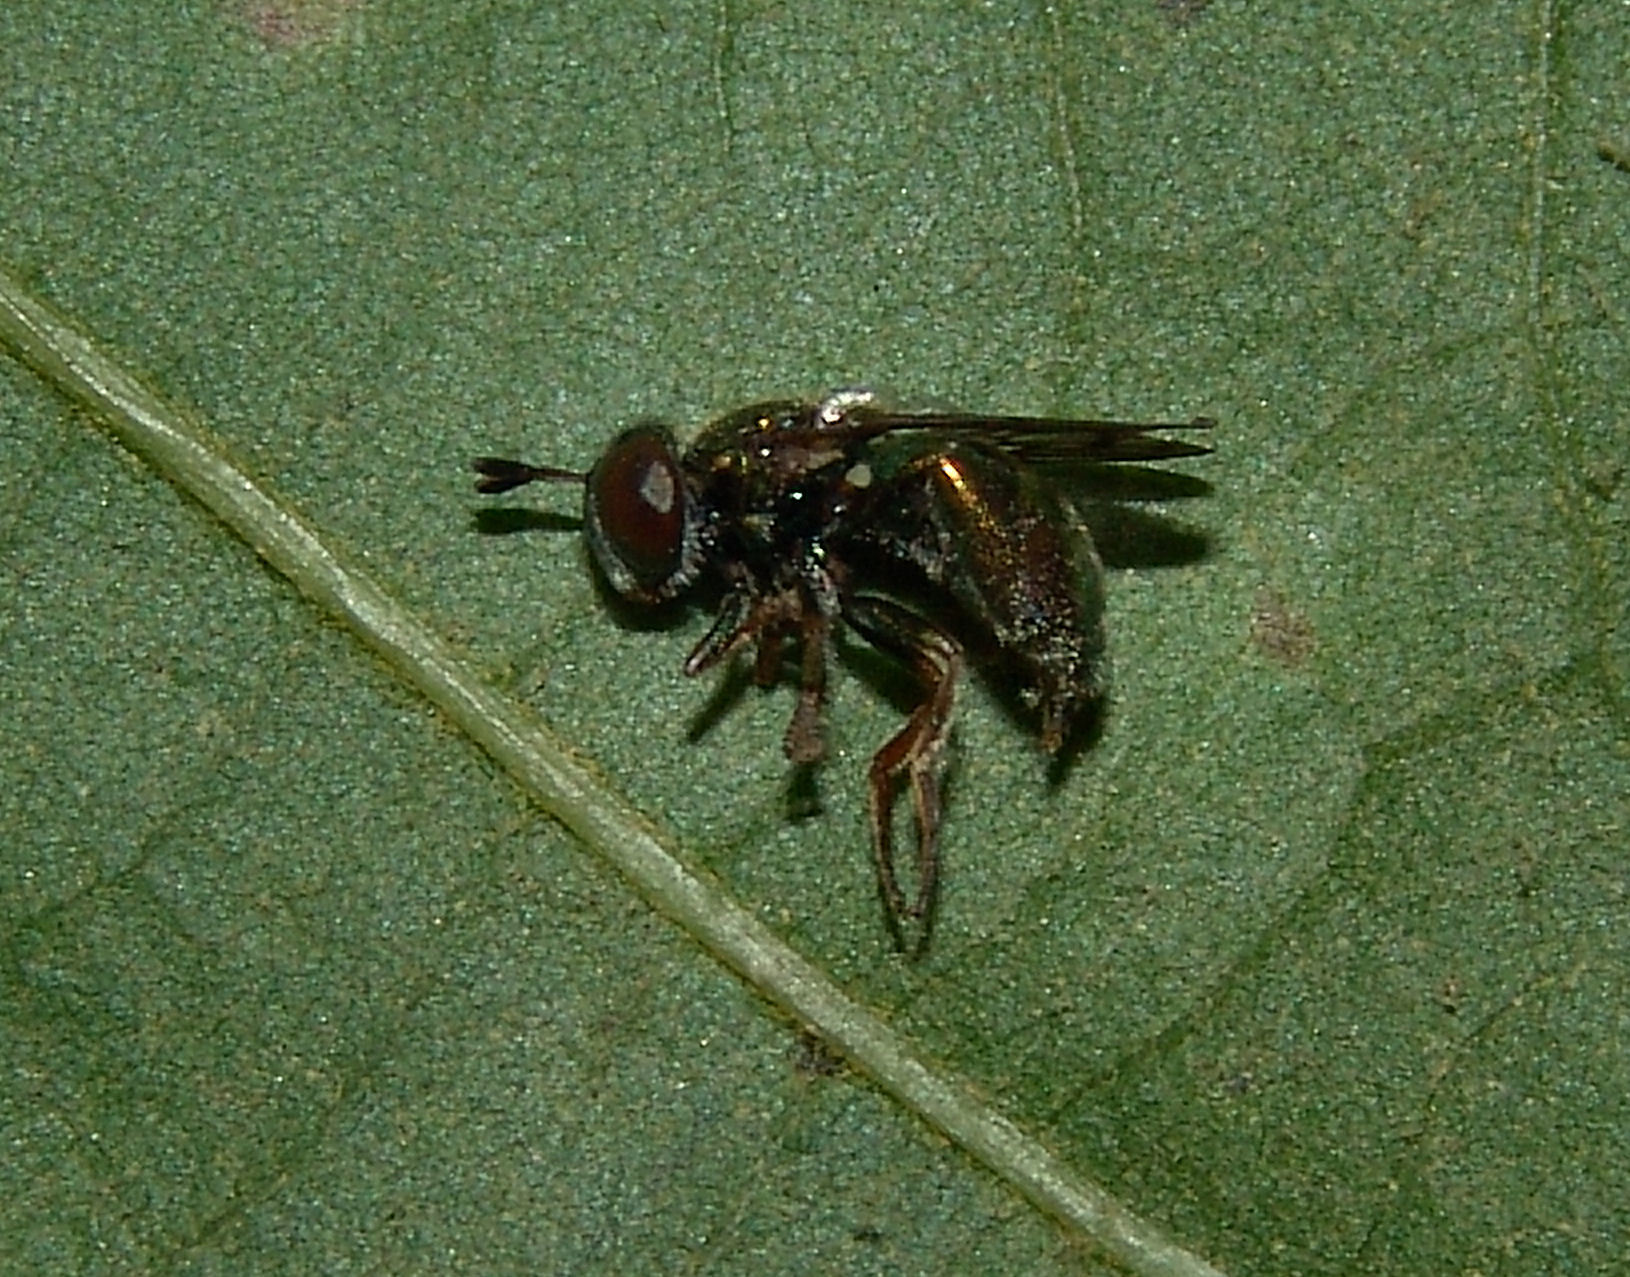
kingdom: Animalia
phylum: Arthropoda
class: Insecta
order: Diptera
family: Syrphidae
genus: Laetodon
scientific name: Laetodon laetus
